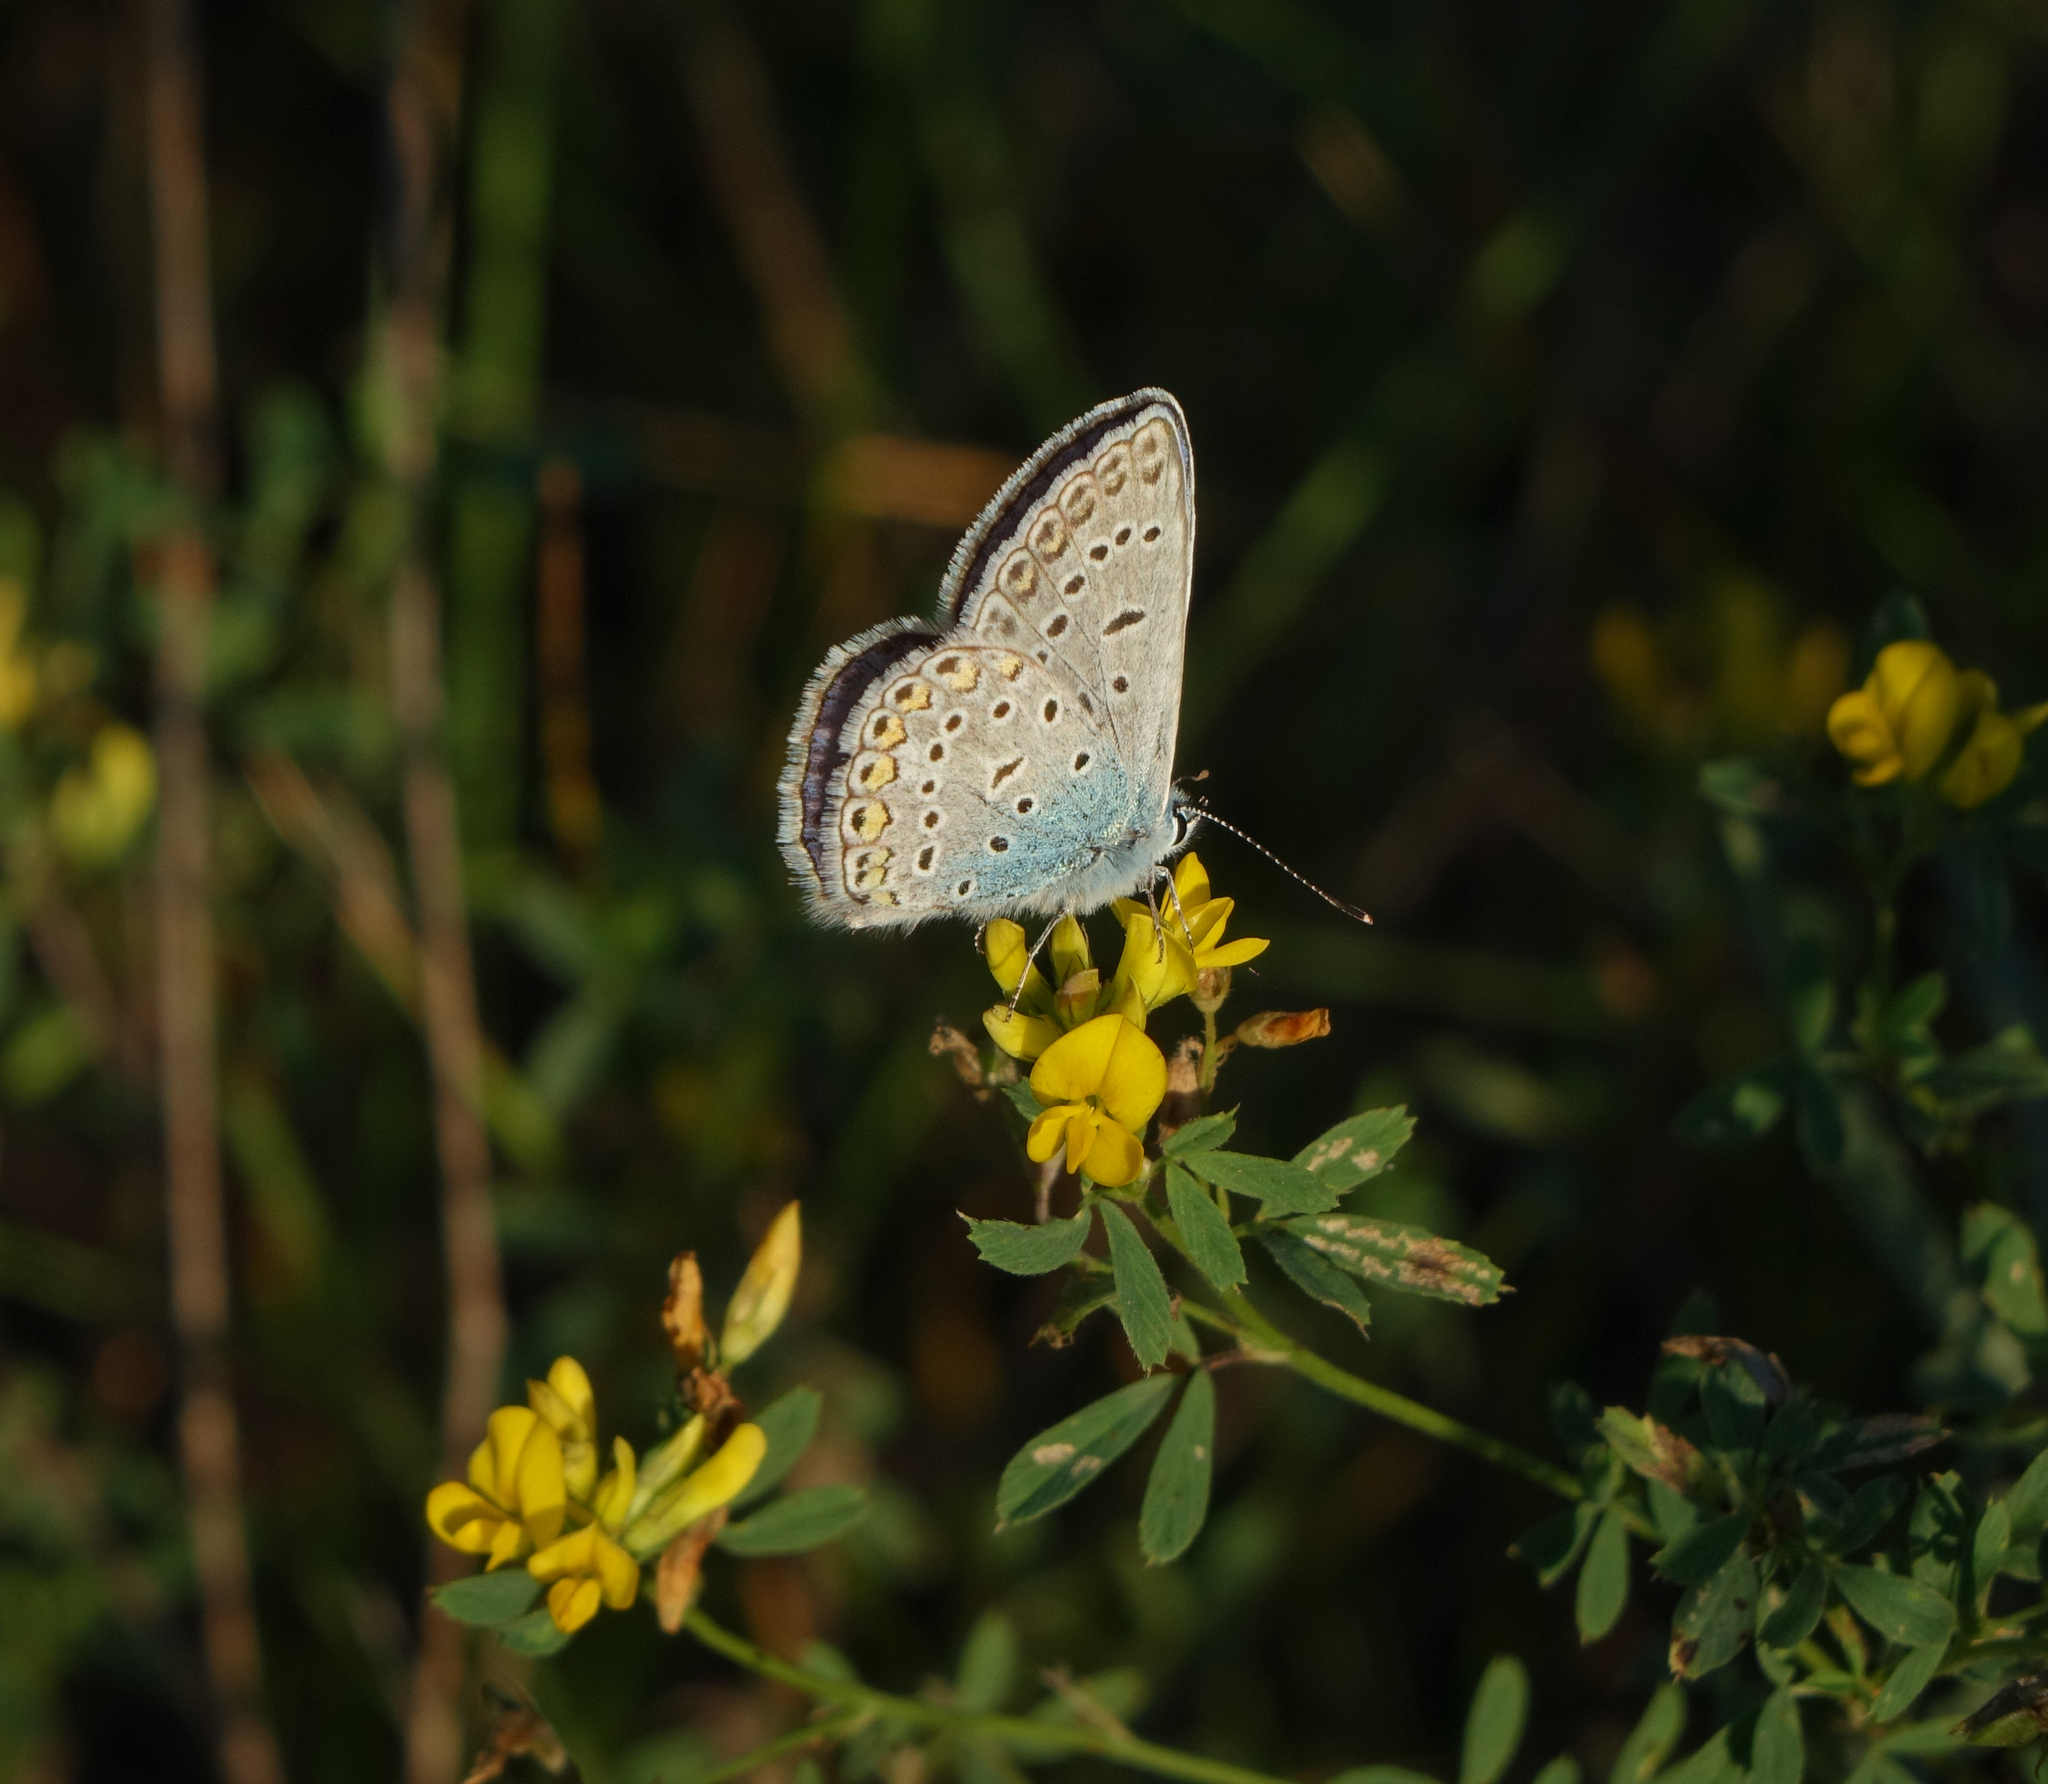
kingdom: Plantae
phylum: Tracheophyta
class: Magnoliopsida
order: Fabales
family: Fabaceae
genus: Medicago
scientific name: Medicago falcata
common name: Sickle medick
